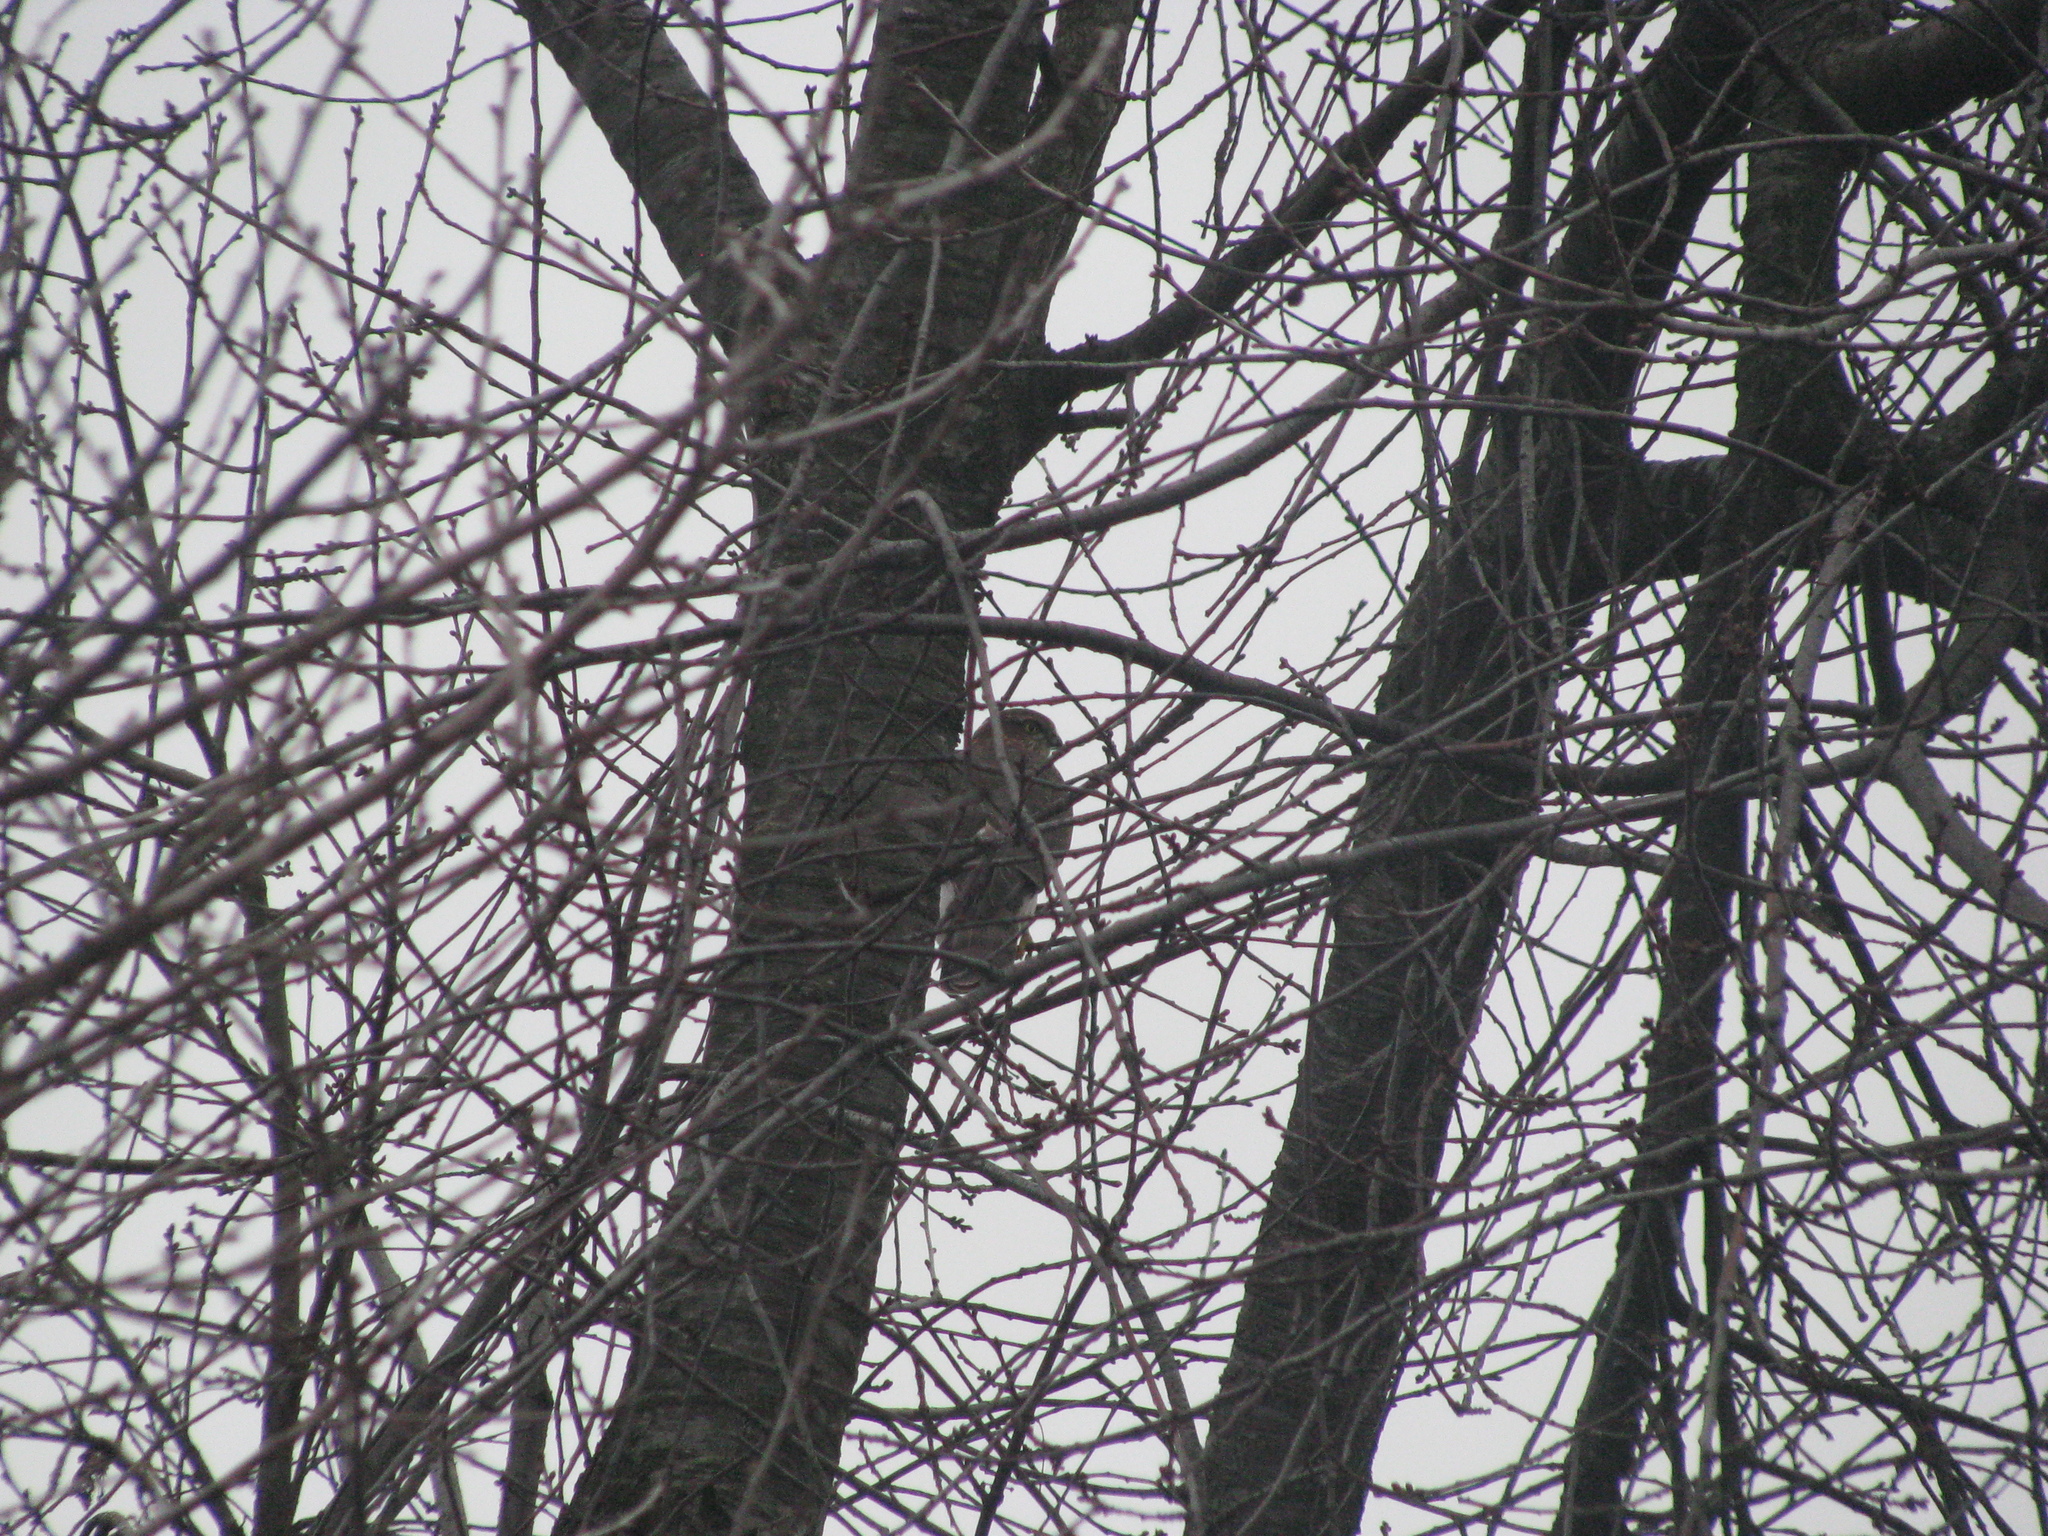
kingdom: Animalia
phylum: Chordata
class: Aves
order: Accipitriformes
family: Accipitridae
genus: Accipiter
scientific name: Accipiter nisus
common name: Eurasian sparrowhawk
